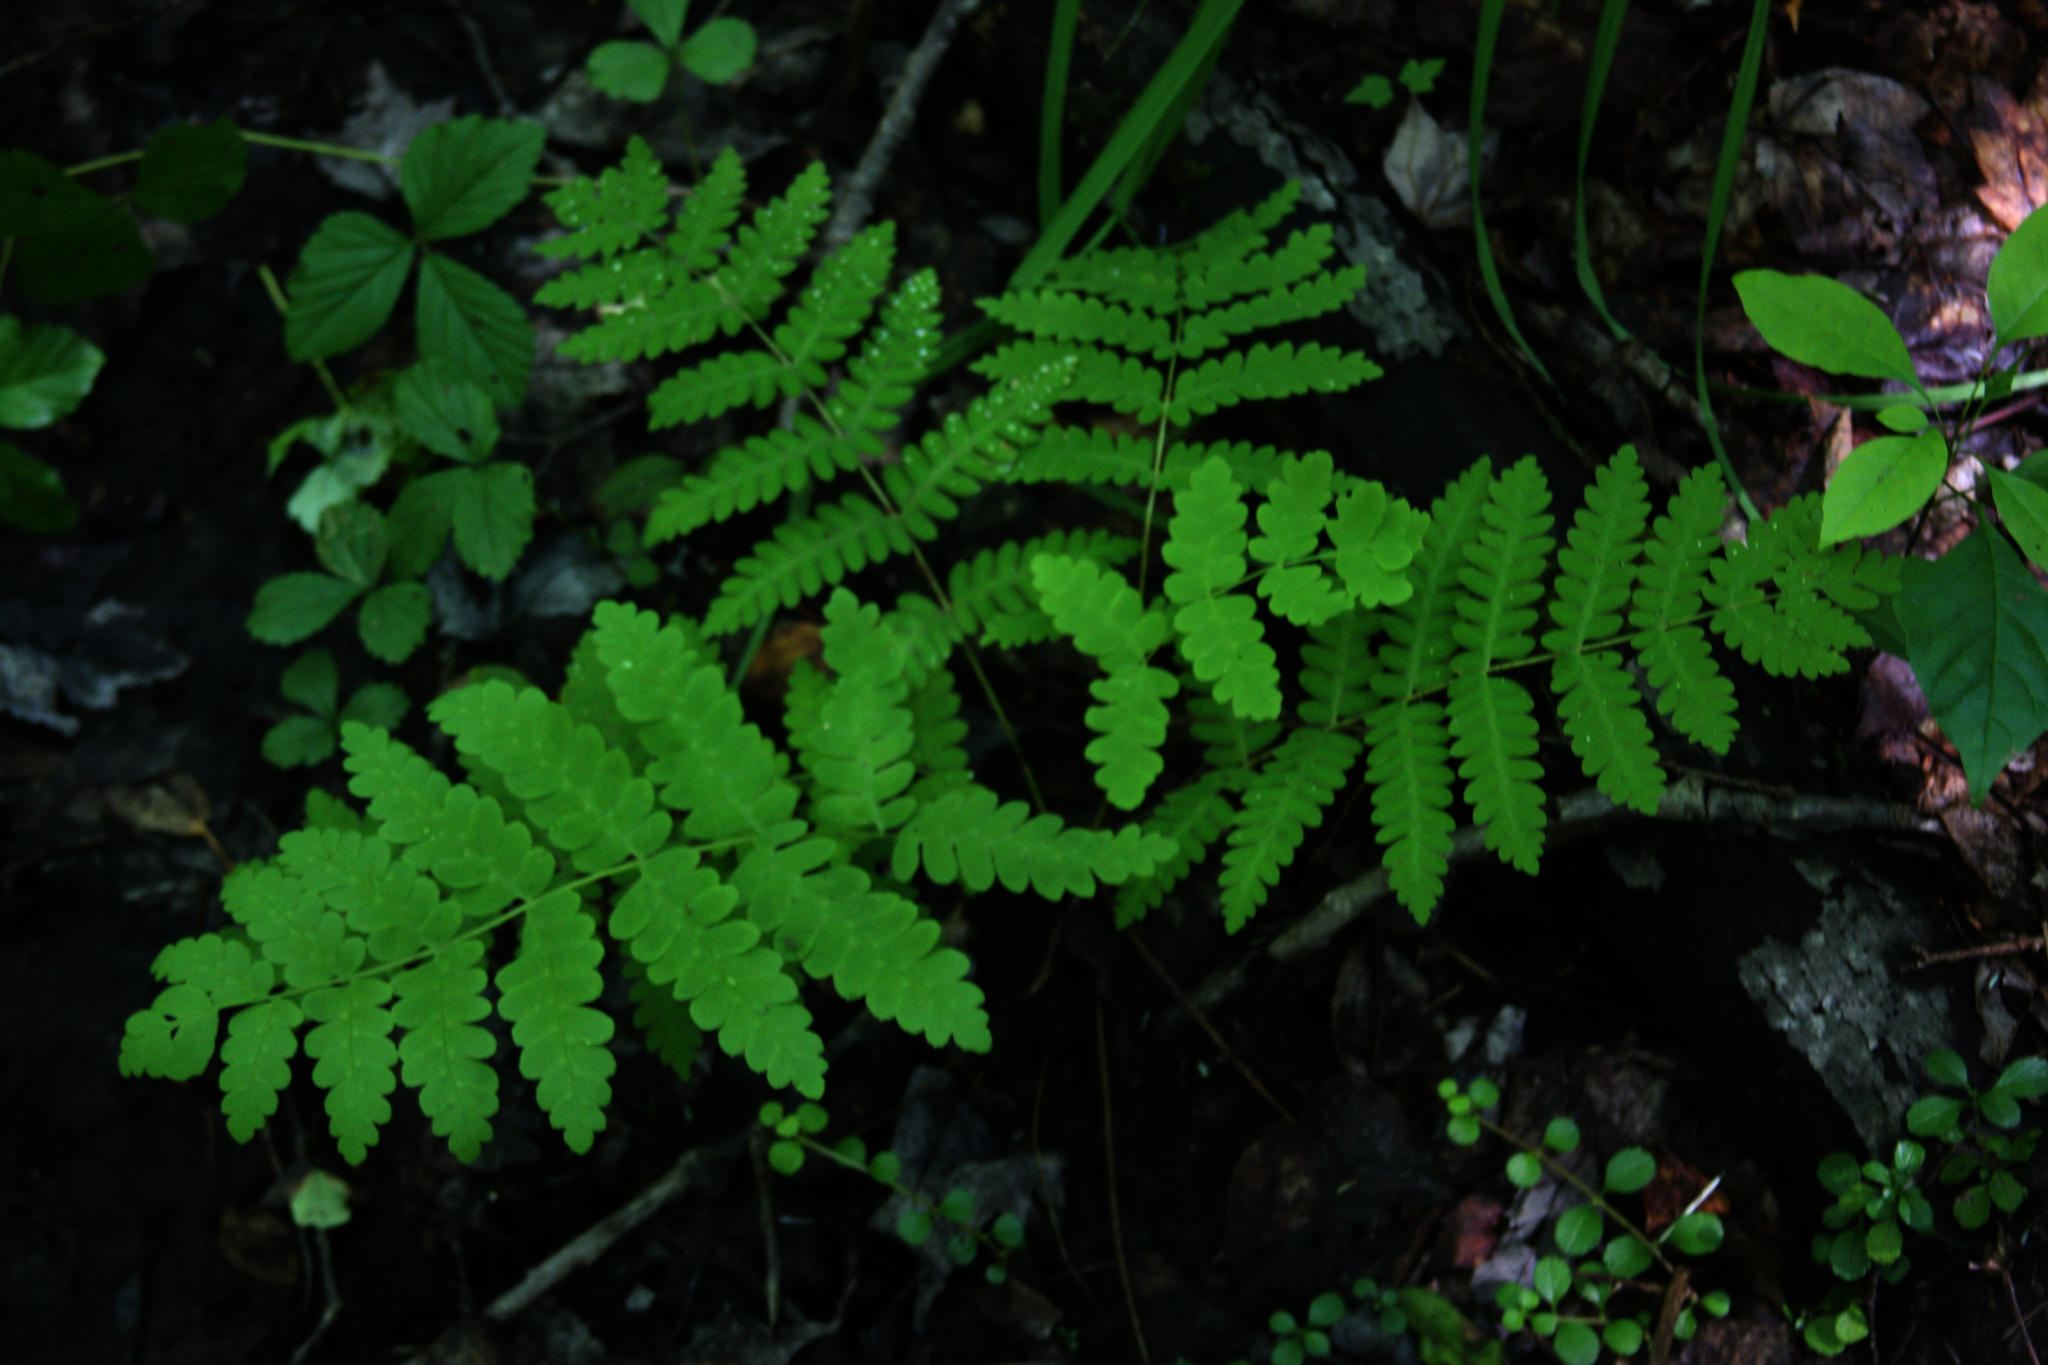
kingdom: Plantae
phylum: Tracheophyta
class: Polypodiopsida
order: Osmundales
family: Osmundaceae
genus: Claytosmunda
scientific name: Claytosmunda claytoniana
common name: Clayton's fern
